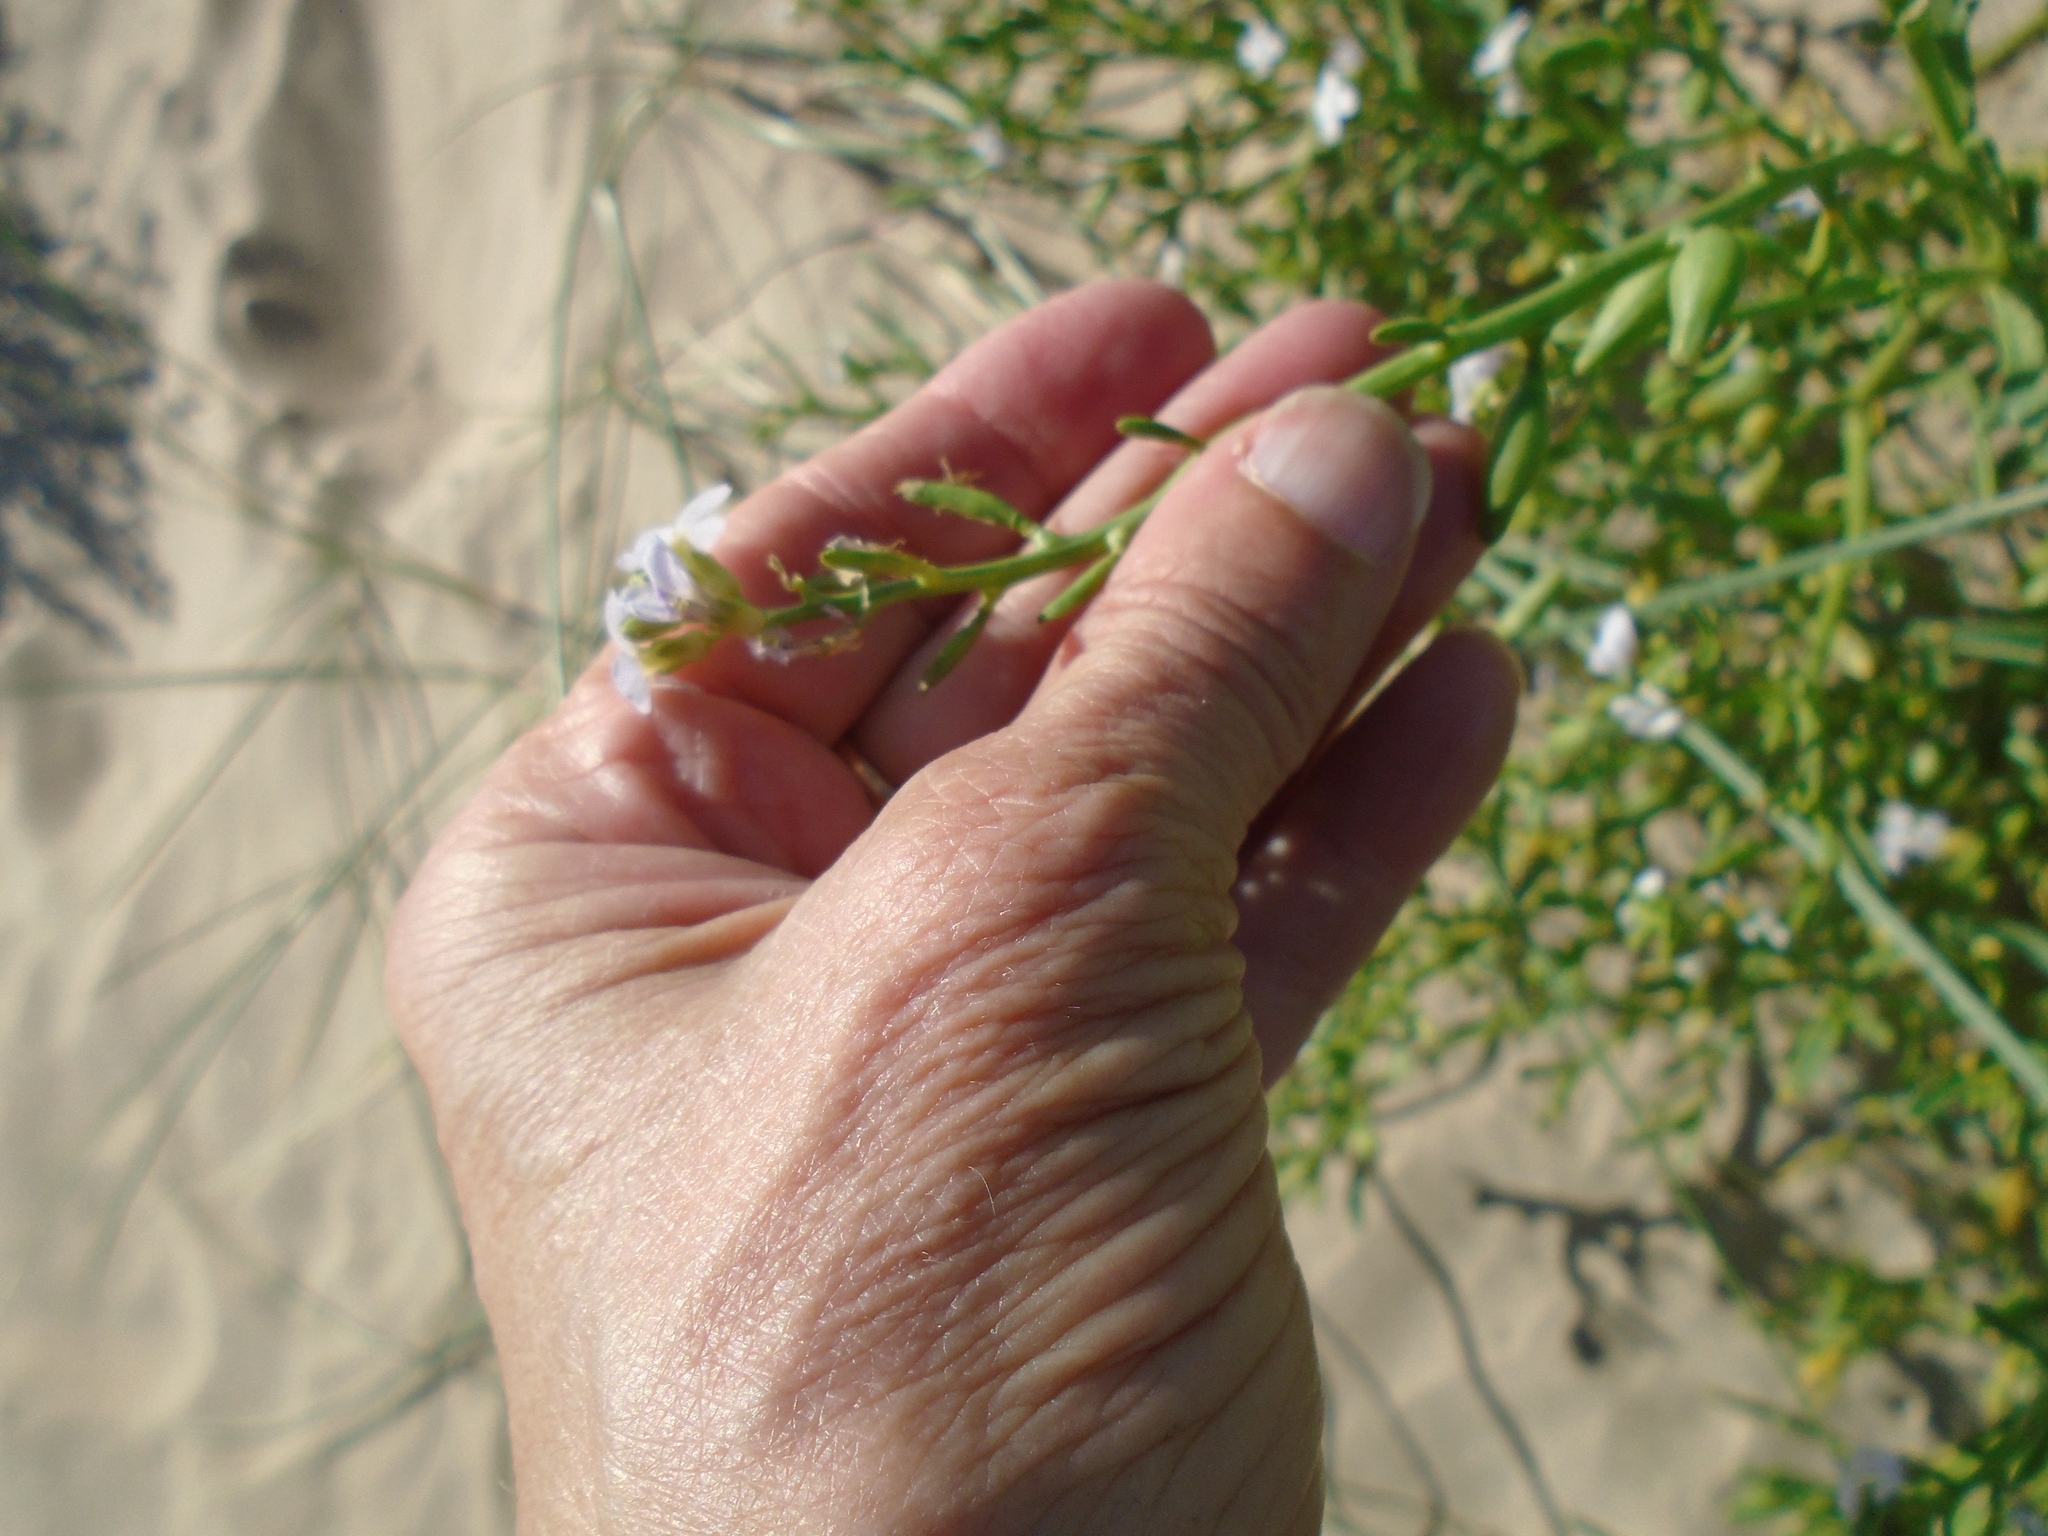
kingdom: Plantae
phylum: Tracheophyta
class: Magnoliopsida
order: Brassicales
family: Brassicaceae
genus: Cakile
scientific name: Cakile maritima
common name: Sea rocket
